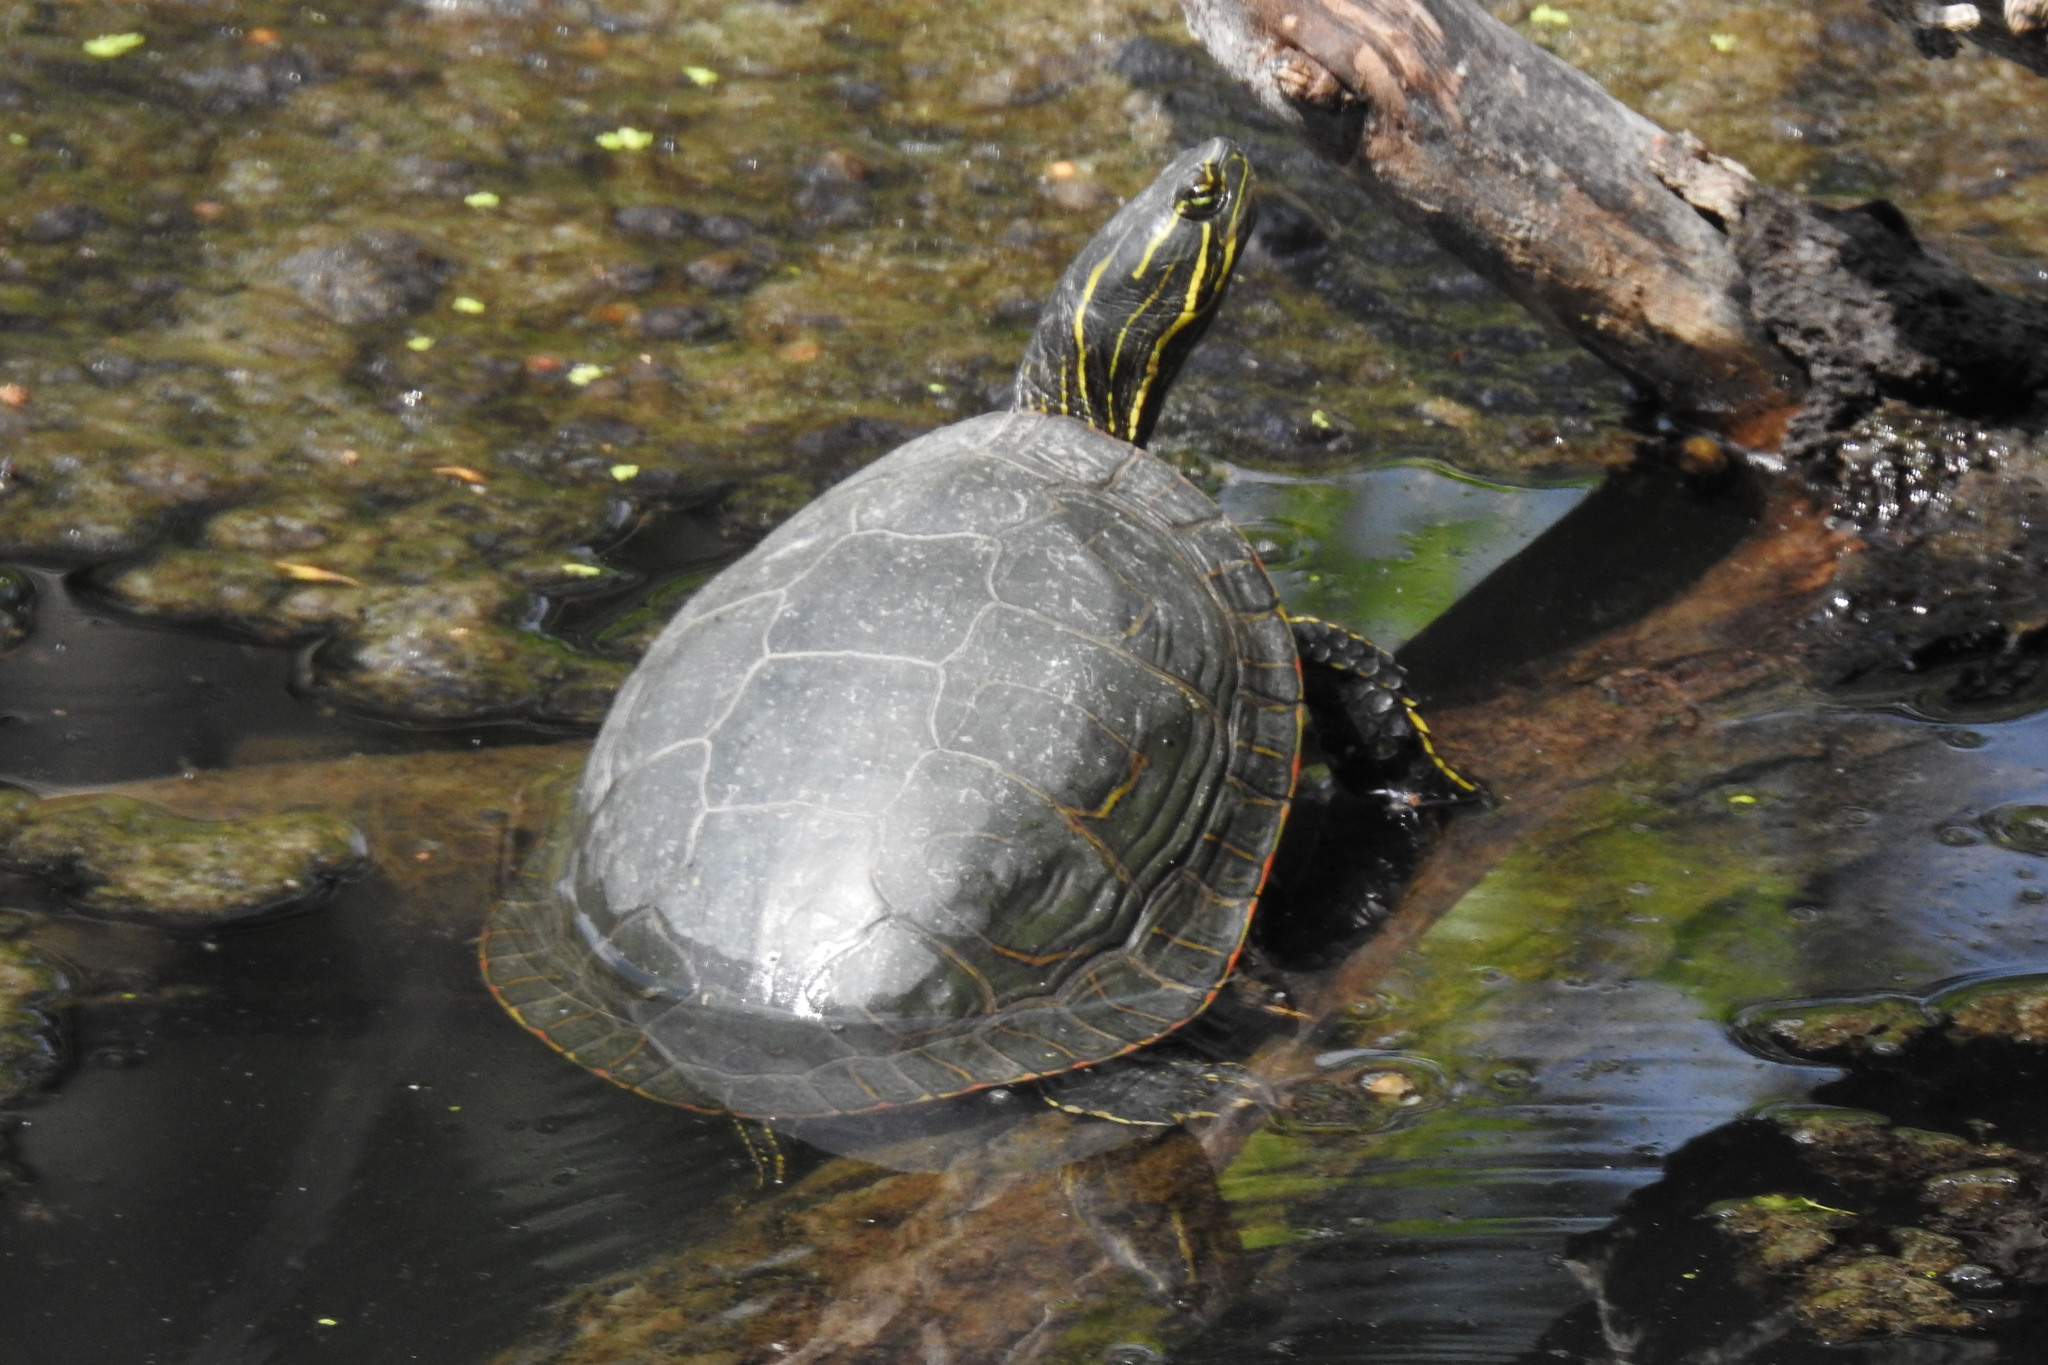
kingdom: Animalia
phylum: Chordata
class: Testudines
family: Emydidae
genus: Chrysemys
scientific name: Chrysemys picta
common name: Painted turtle
